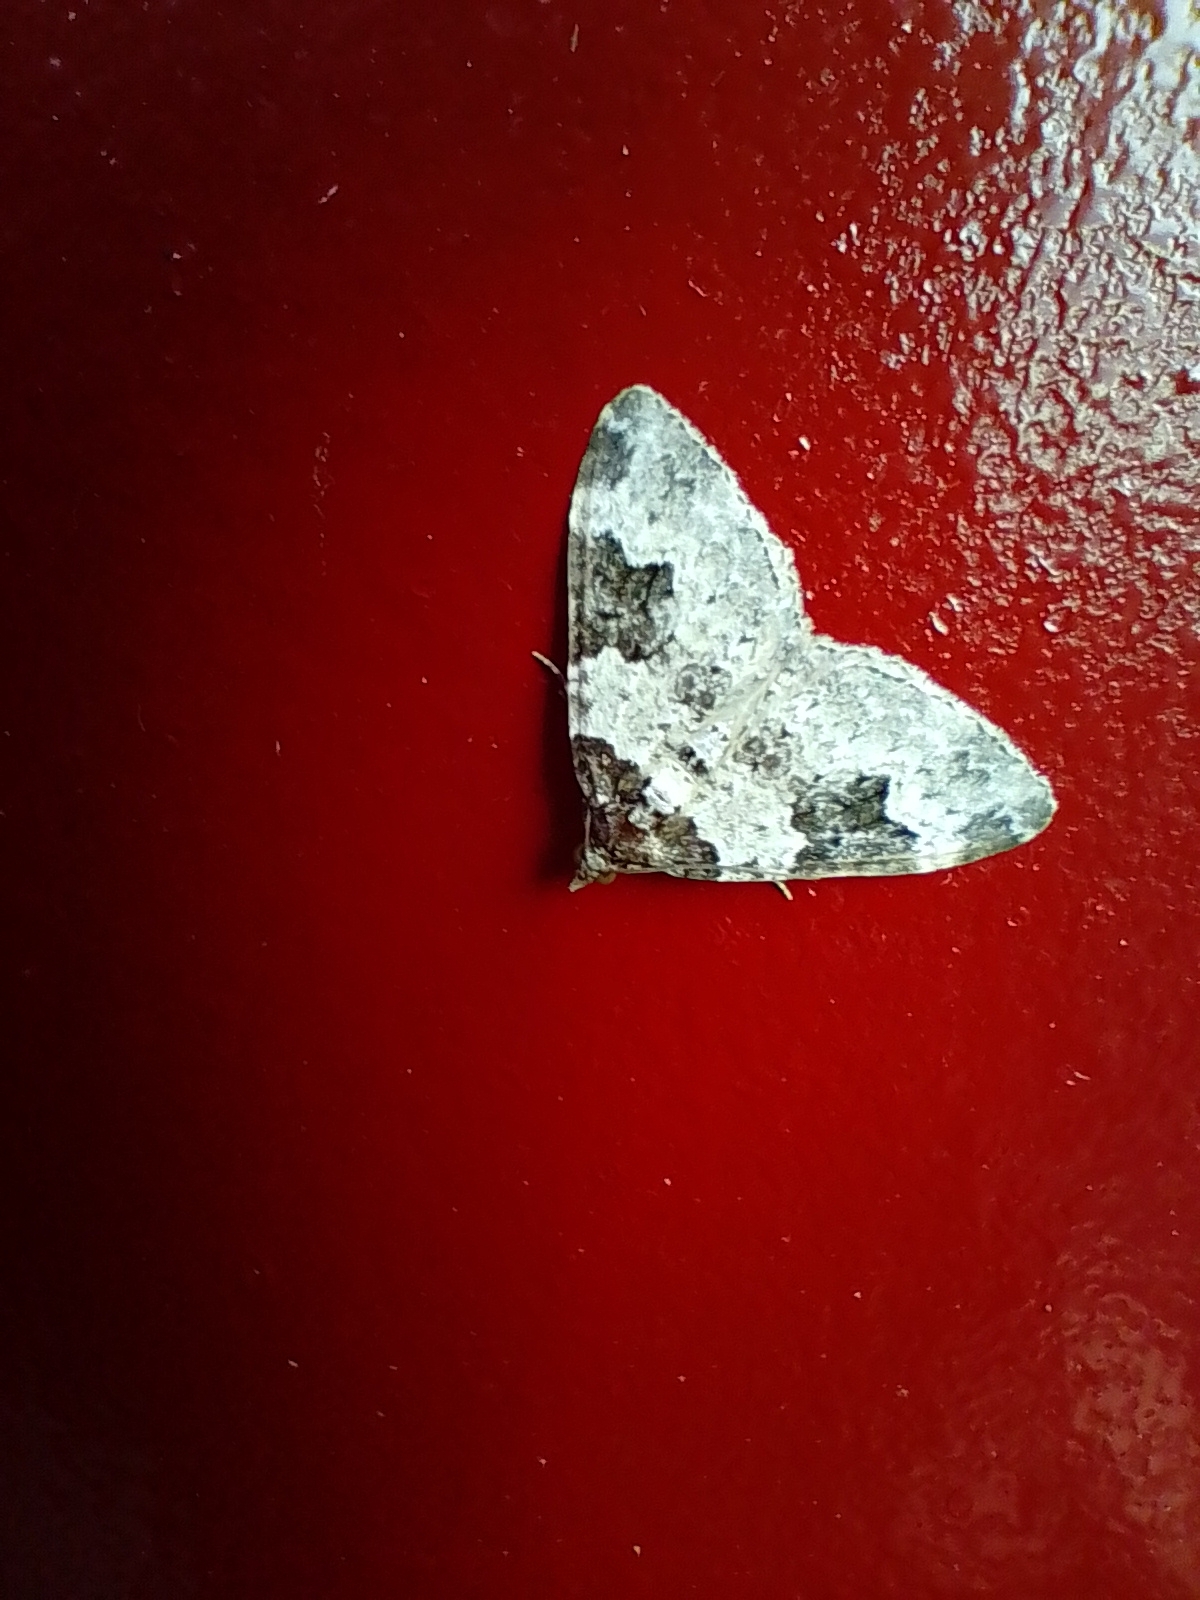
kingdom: Animalia
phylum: Arthropoda
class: Insecta
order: Lepidoptera
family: Geometridae
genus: Xanthorhoe
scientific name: Xanthorhoe fluctuata
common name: Garden carpet
